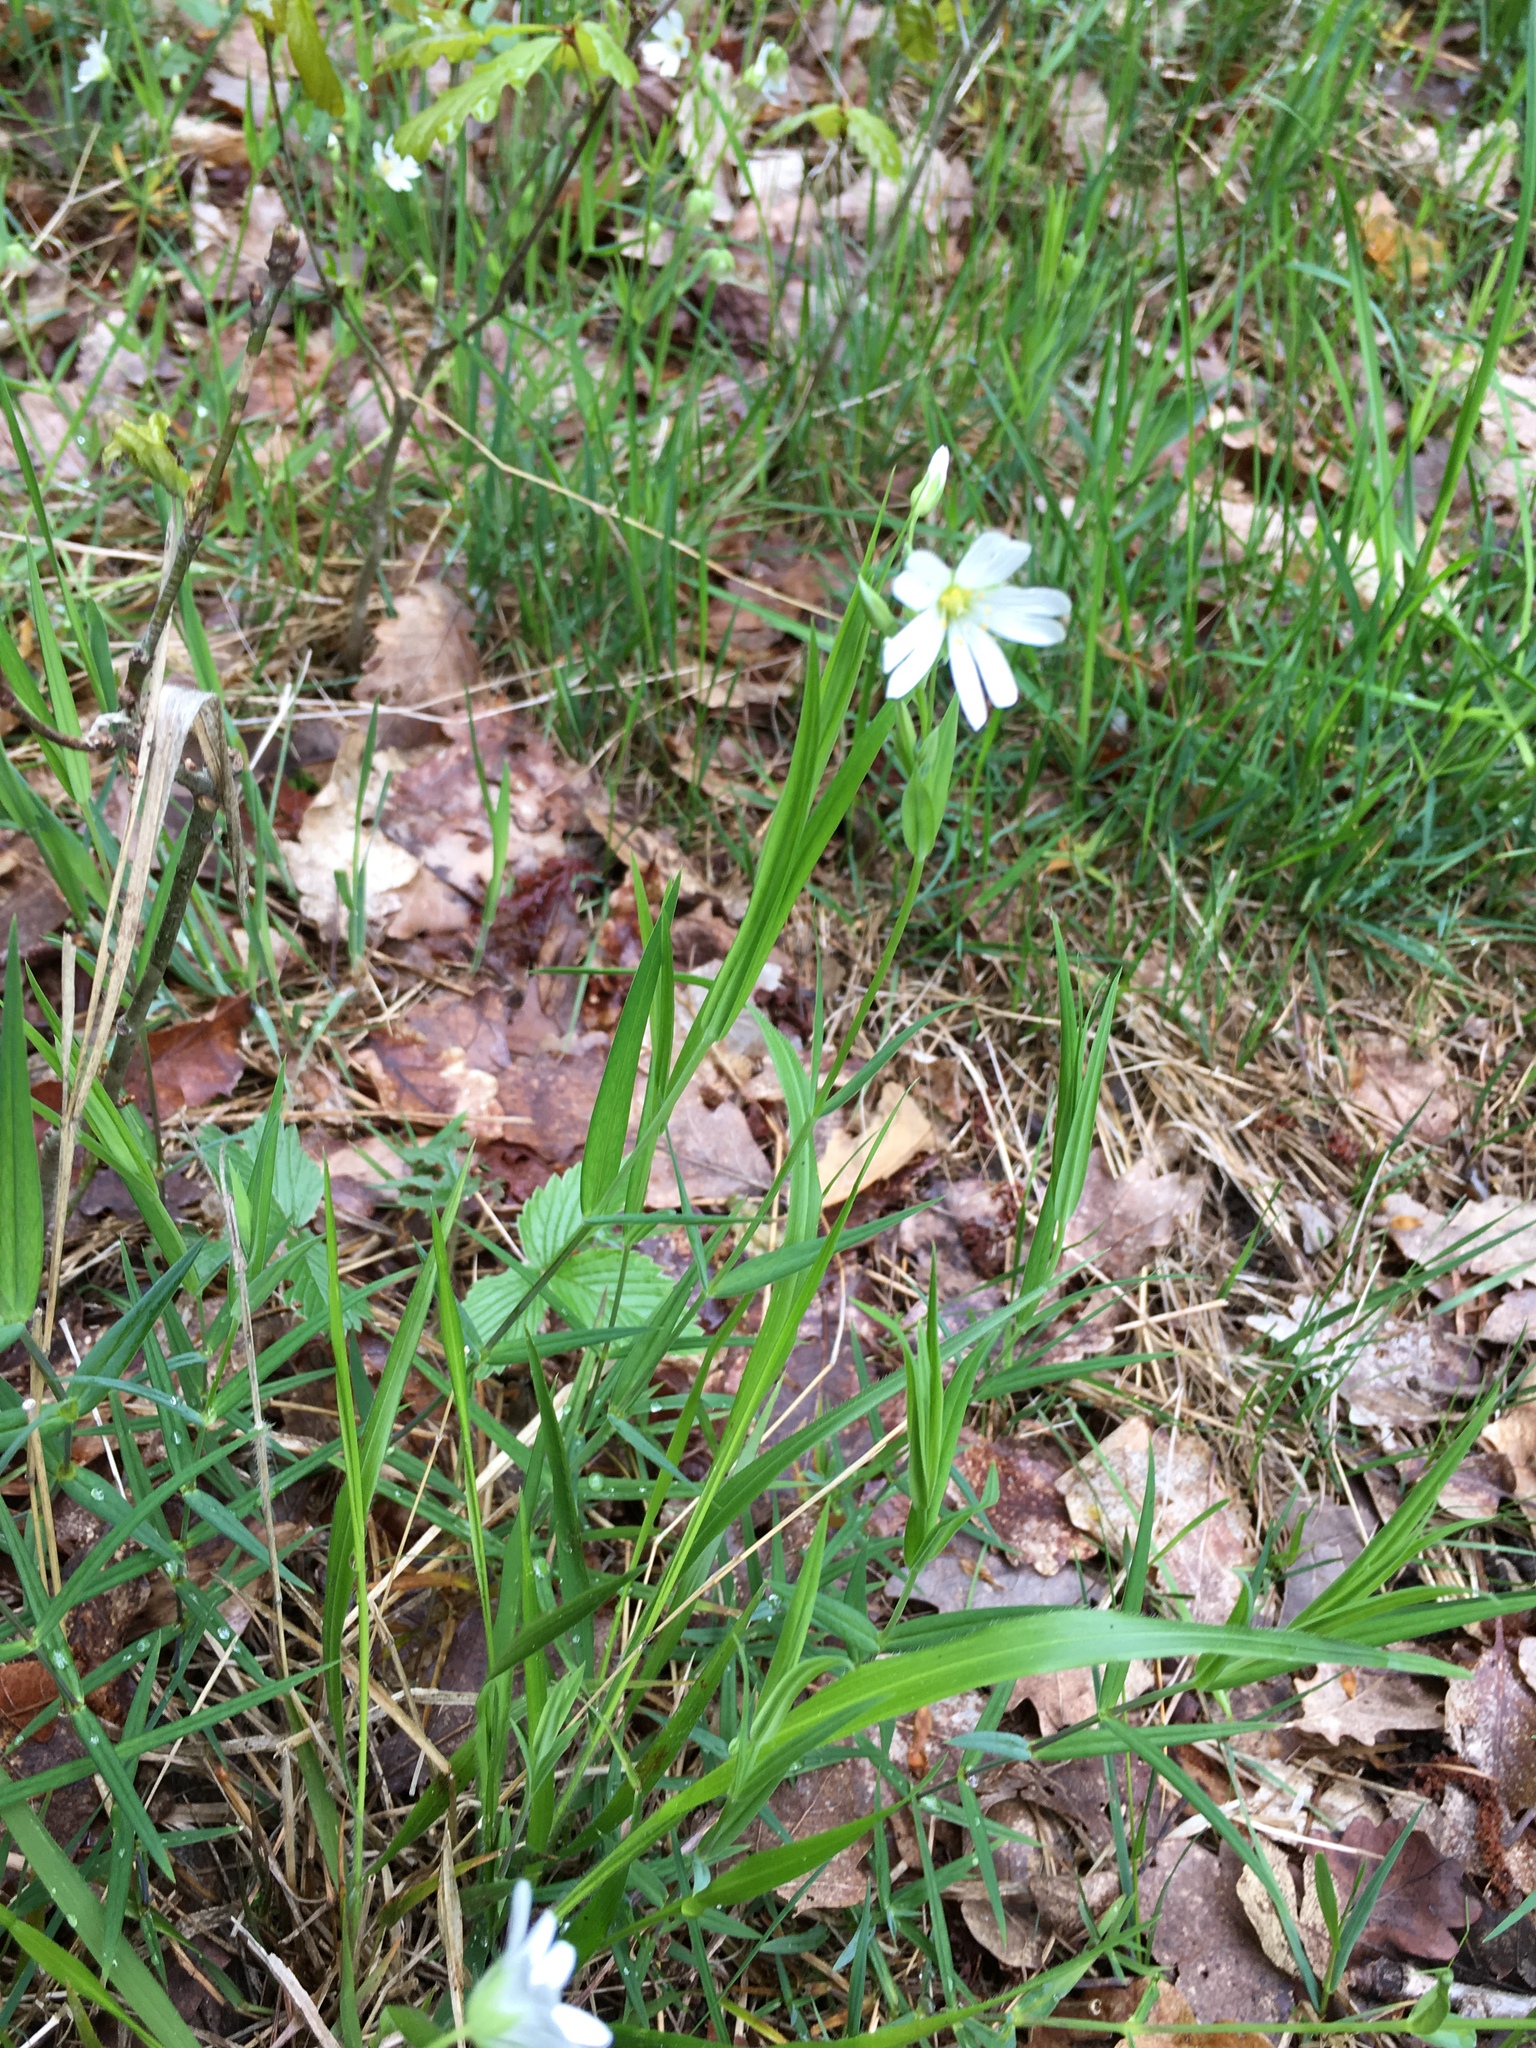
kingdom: Plantae
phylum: Tracheophyta
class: Magnoliopsida
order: Caryophyllales
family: Caryophyllaceae
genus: Rabelera
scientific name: Rabelera holostea
